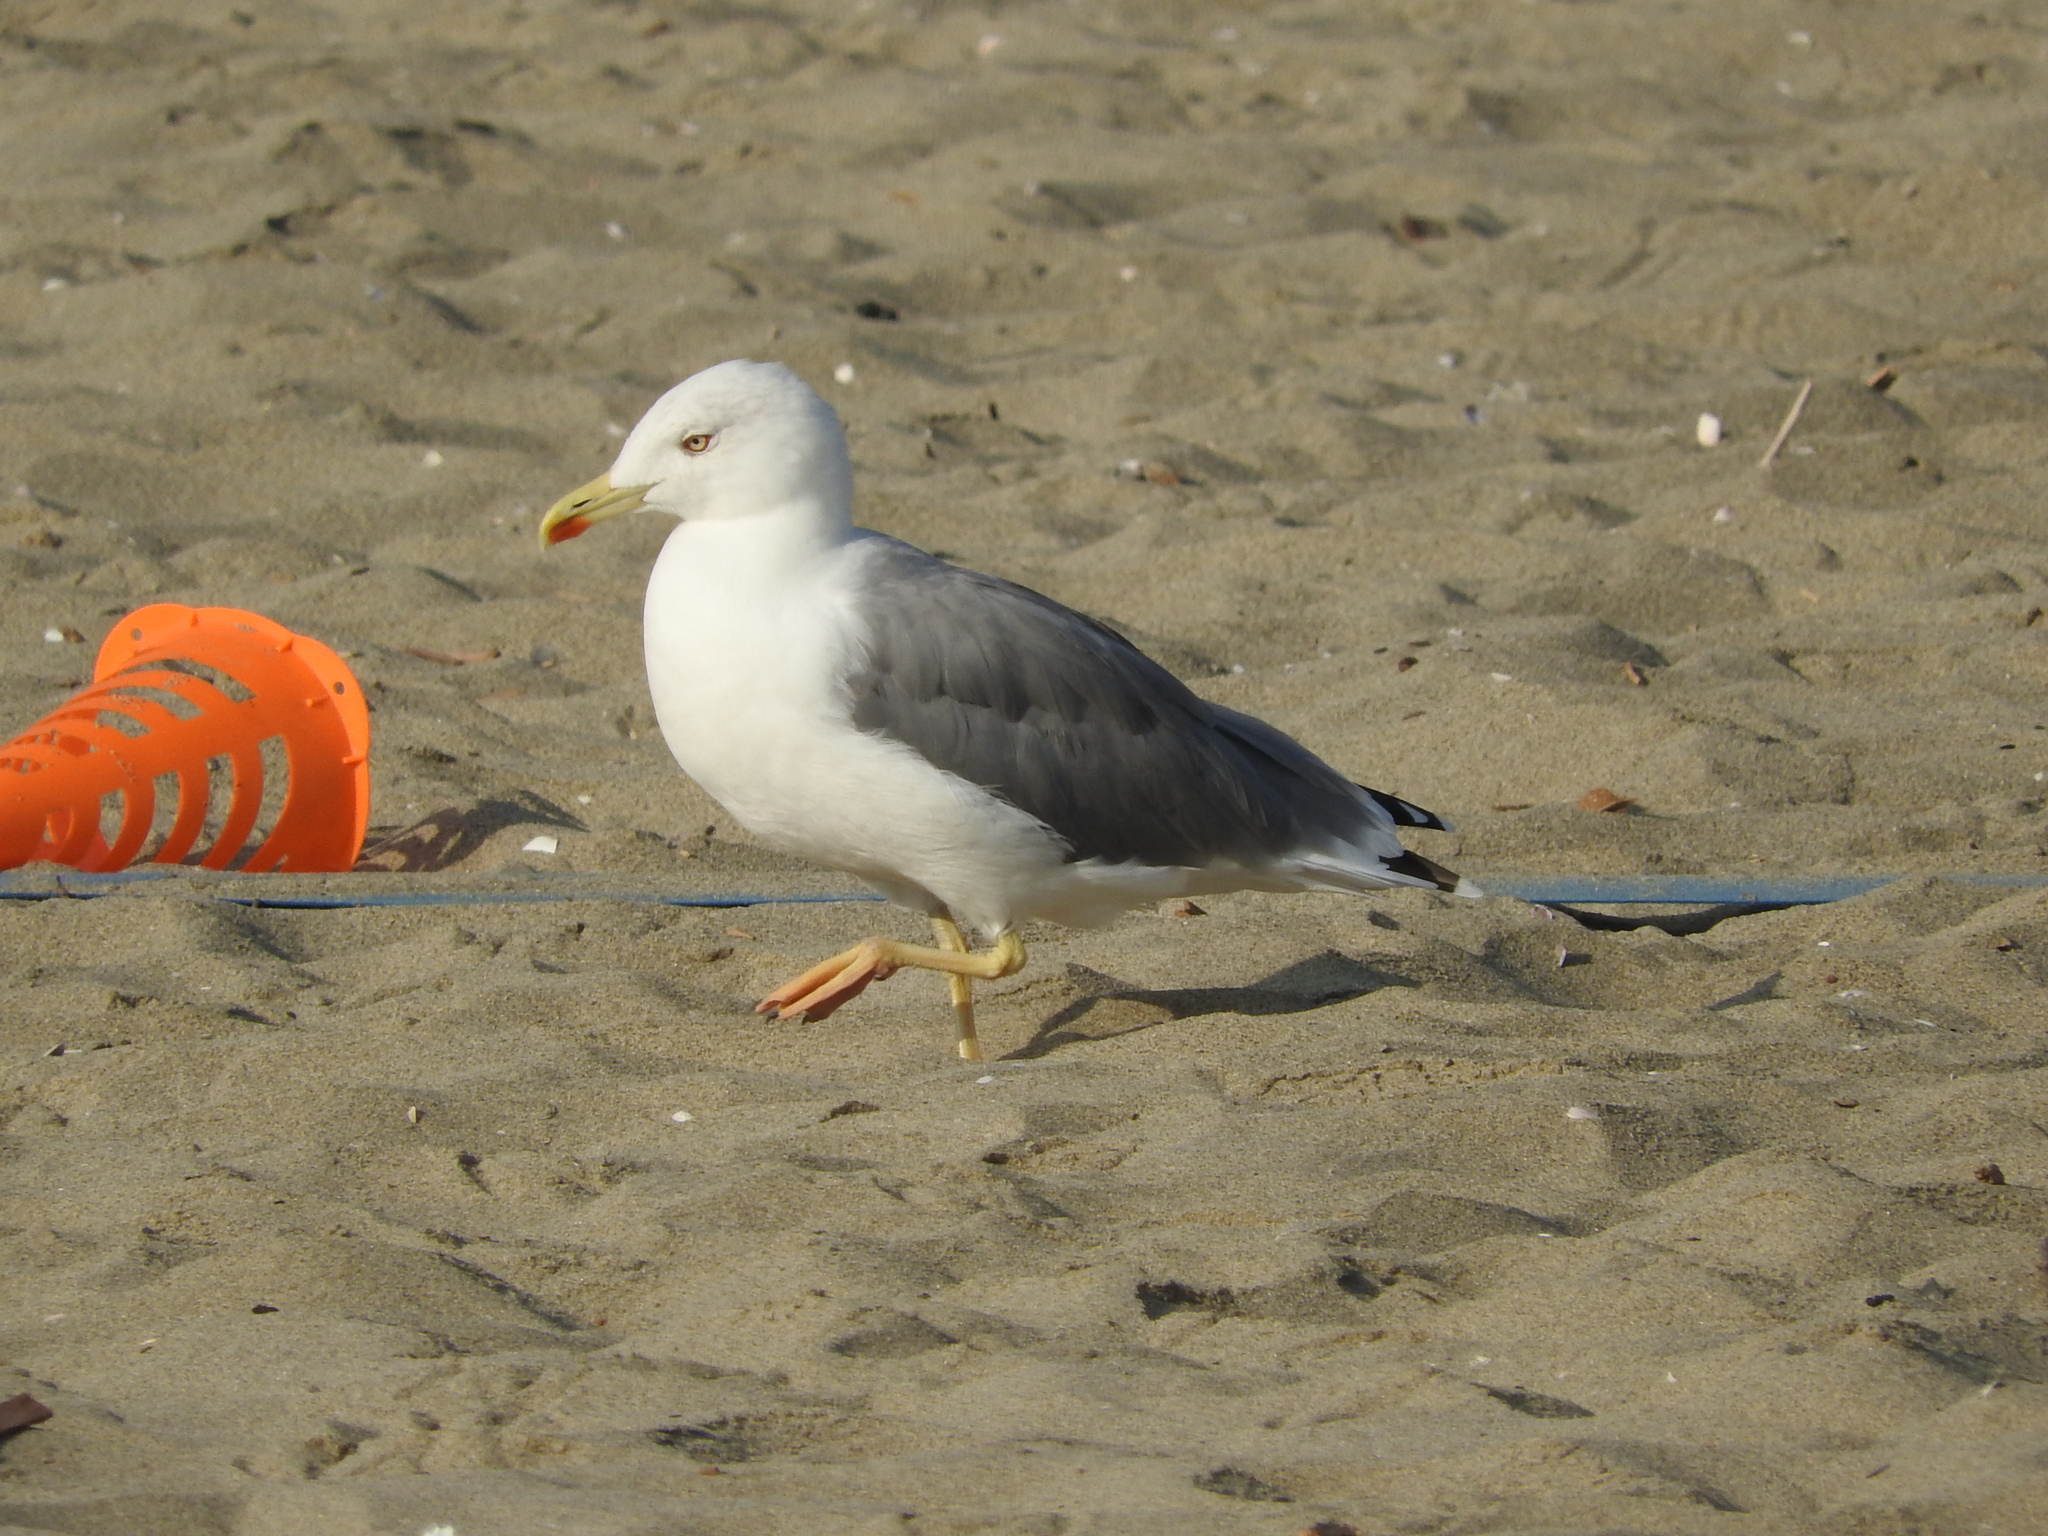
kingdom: Animalia
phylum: Chordata
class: Aves
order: Charadriiformes
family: Laridae
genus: Larus
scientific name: Larus michahellis
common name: Yellow-legged gull
